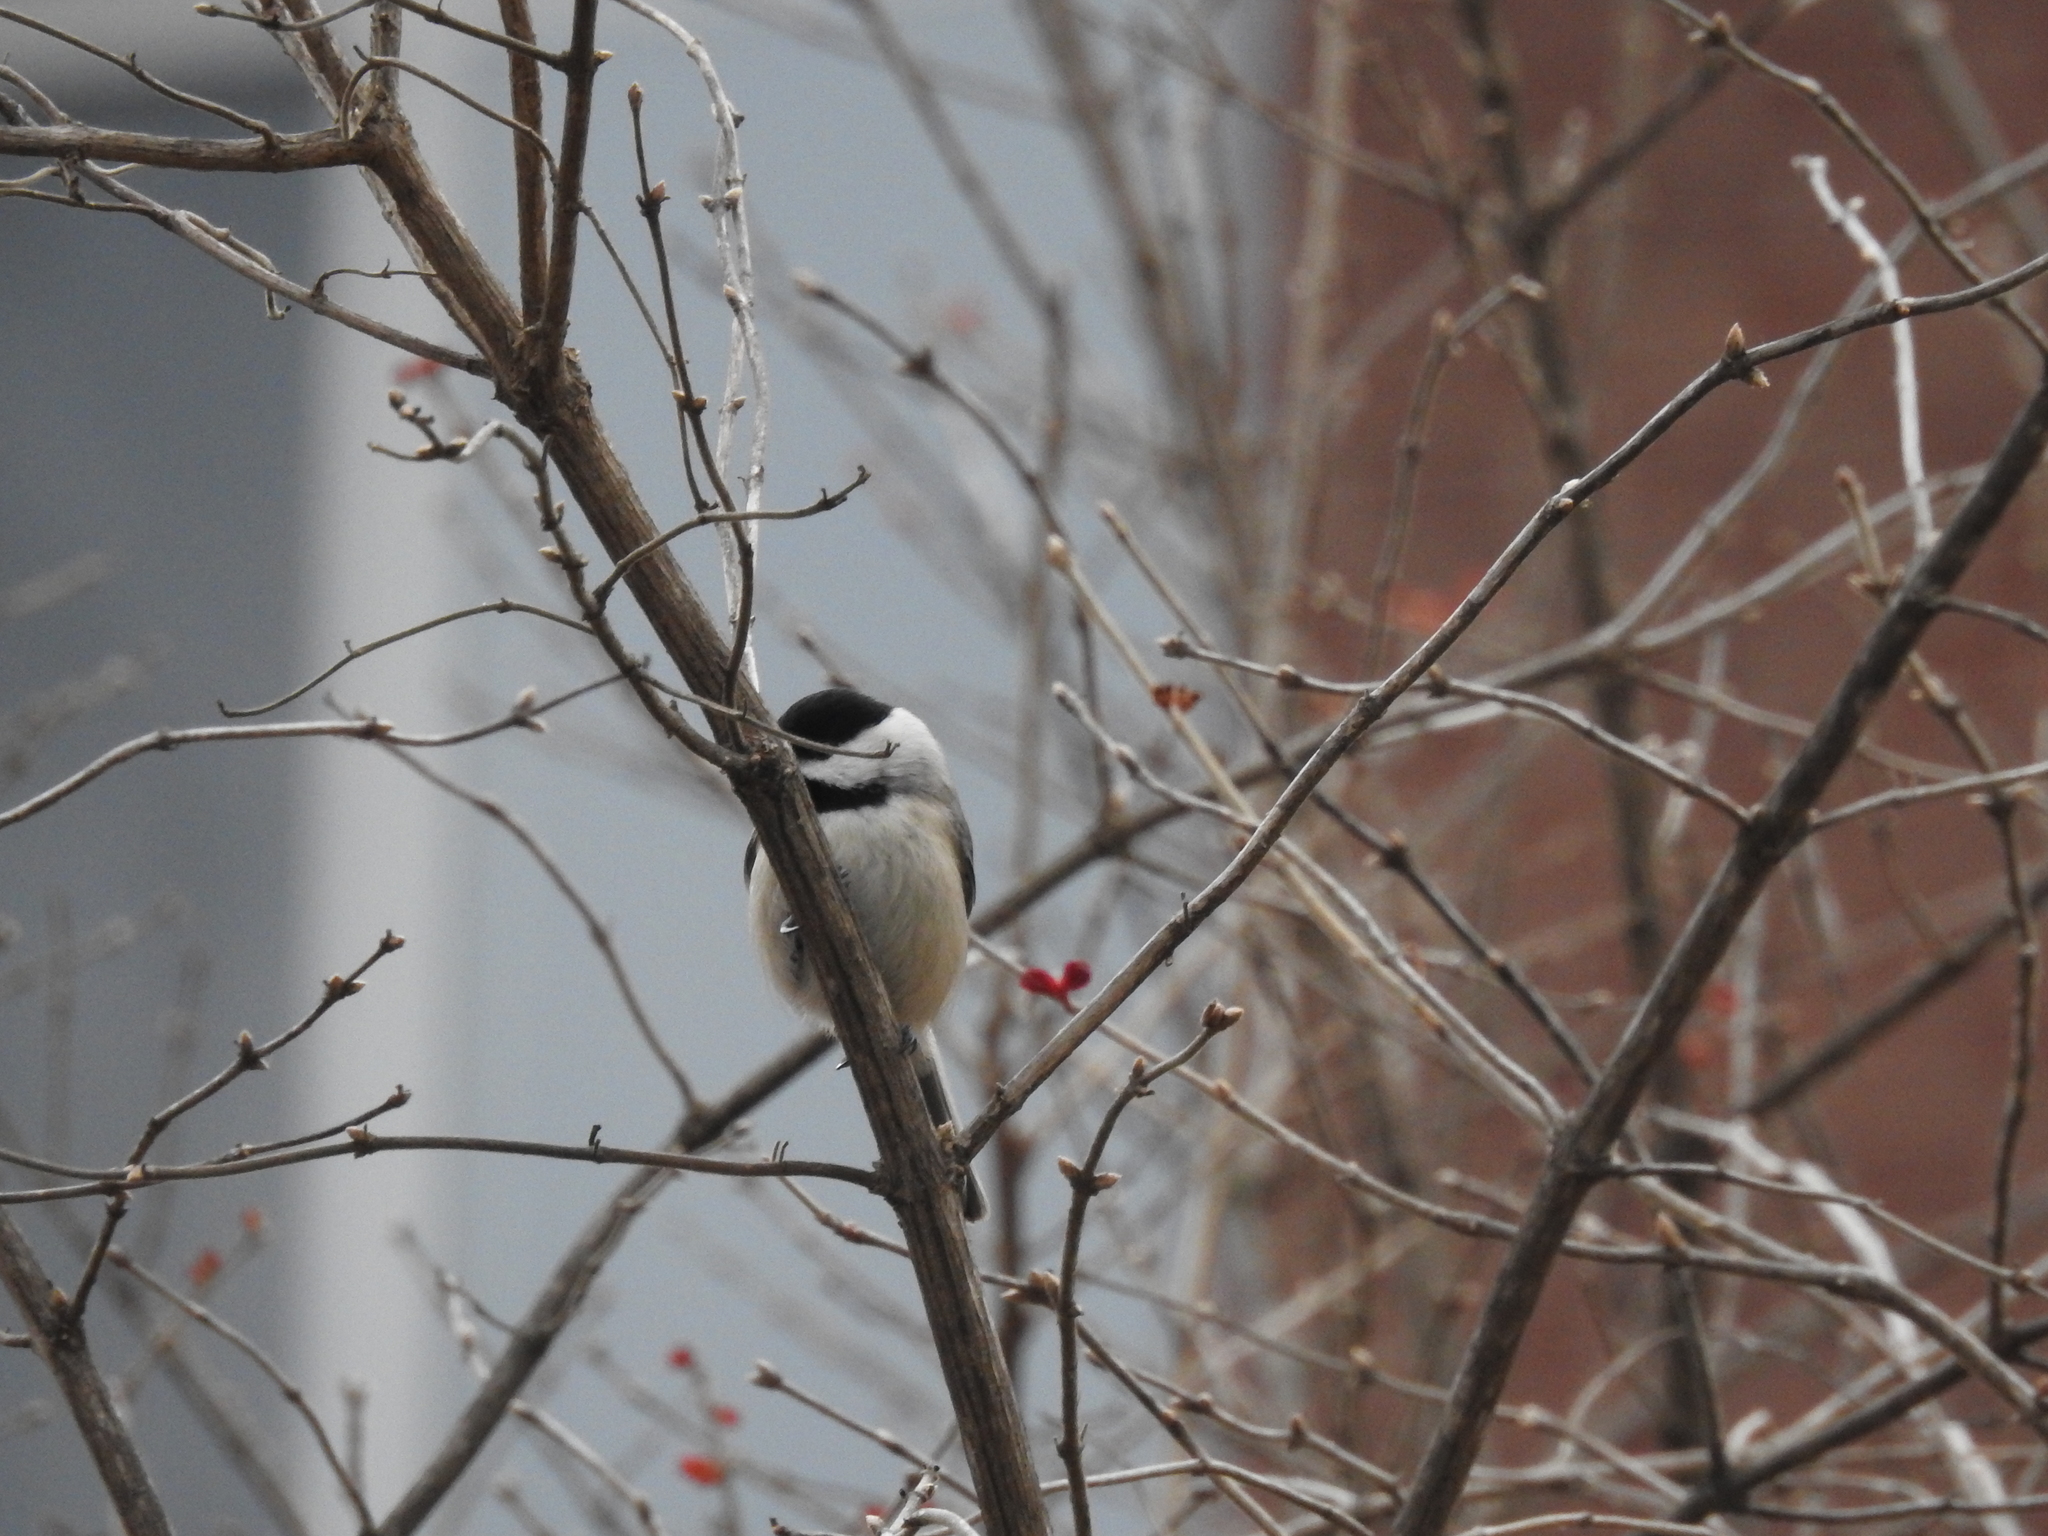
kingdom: Animalia
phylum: Chordata
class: Aves
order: Passeriformes
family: Paridae
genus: Poecile
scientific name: Poecile carolinensis
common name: Carolina chickadee
